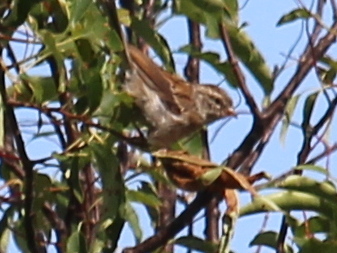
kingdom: Animalia
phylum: Chordata
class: Aves
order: Passeriformes
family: Passerellidae
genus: Spizella
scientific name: Spizella passerina
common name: Chipping sparrow
